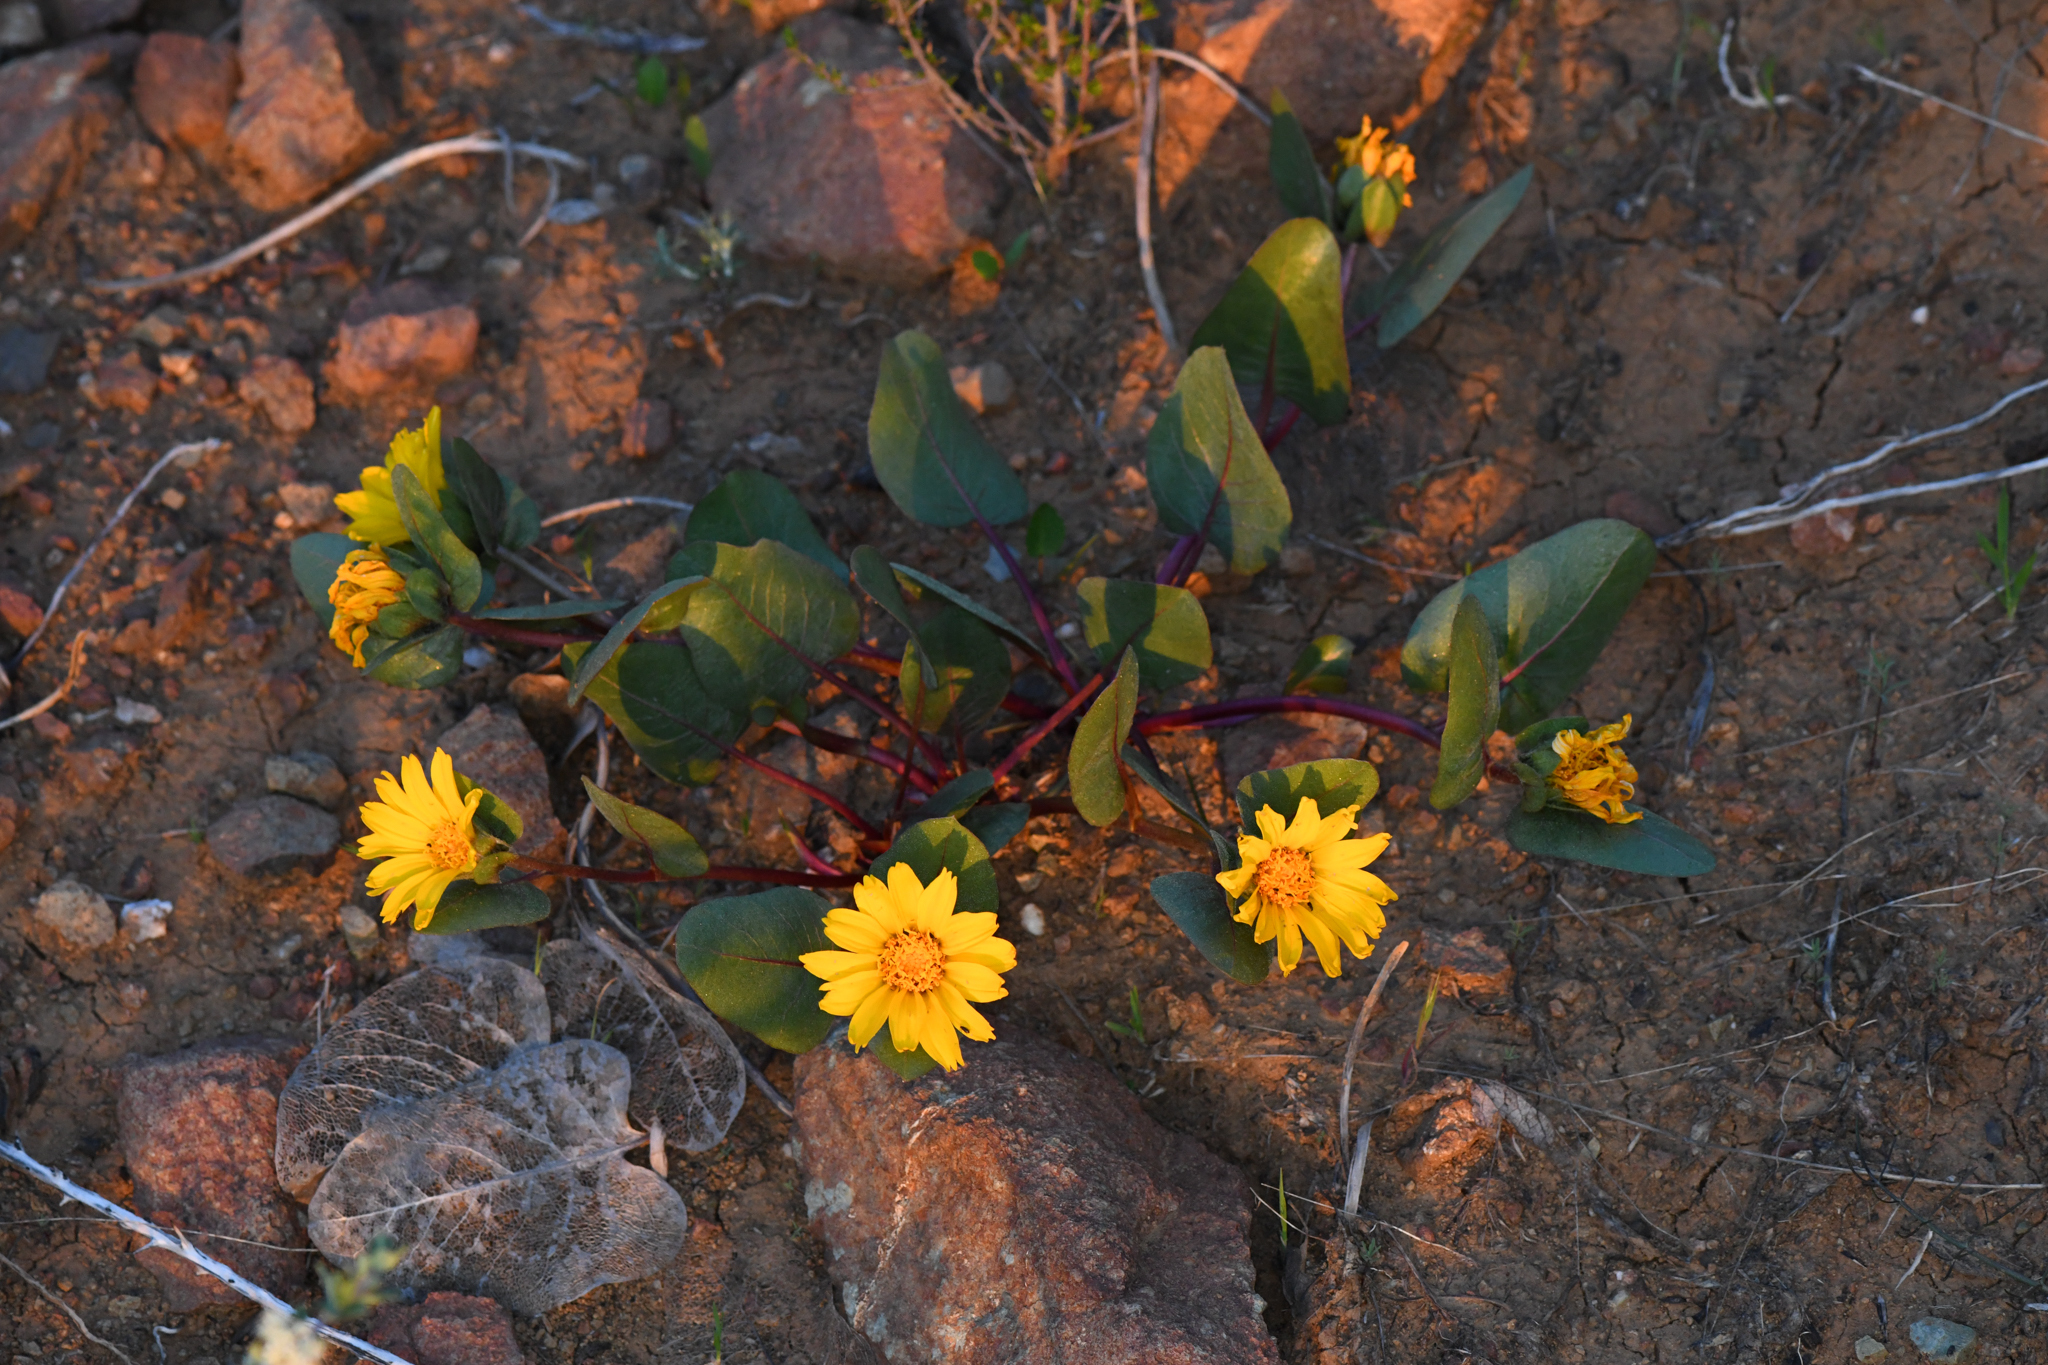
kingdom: Plantae
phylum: Tracheophyta
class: Magnoliopsida
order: Asterales
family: Asteraceae
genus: Agnorhiza
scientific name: Agnorhiza bolanderi
